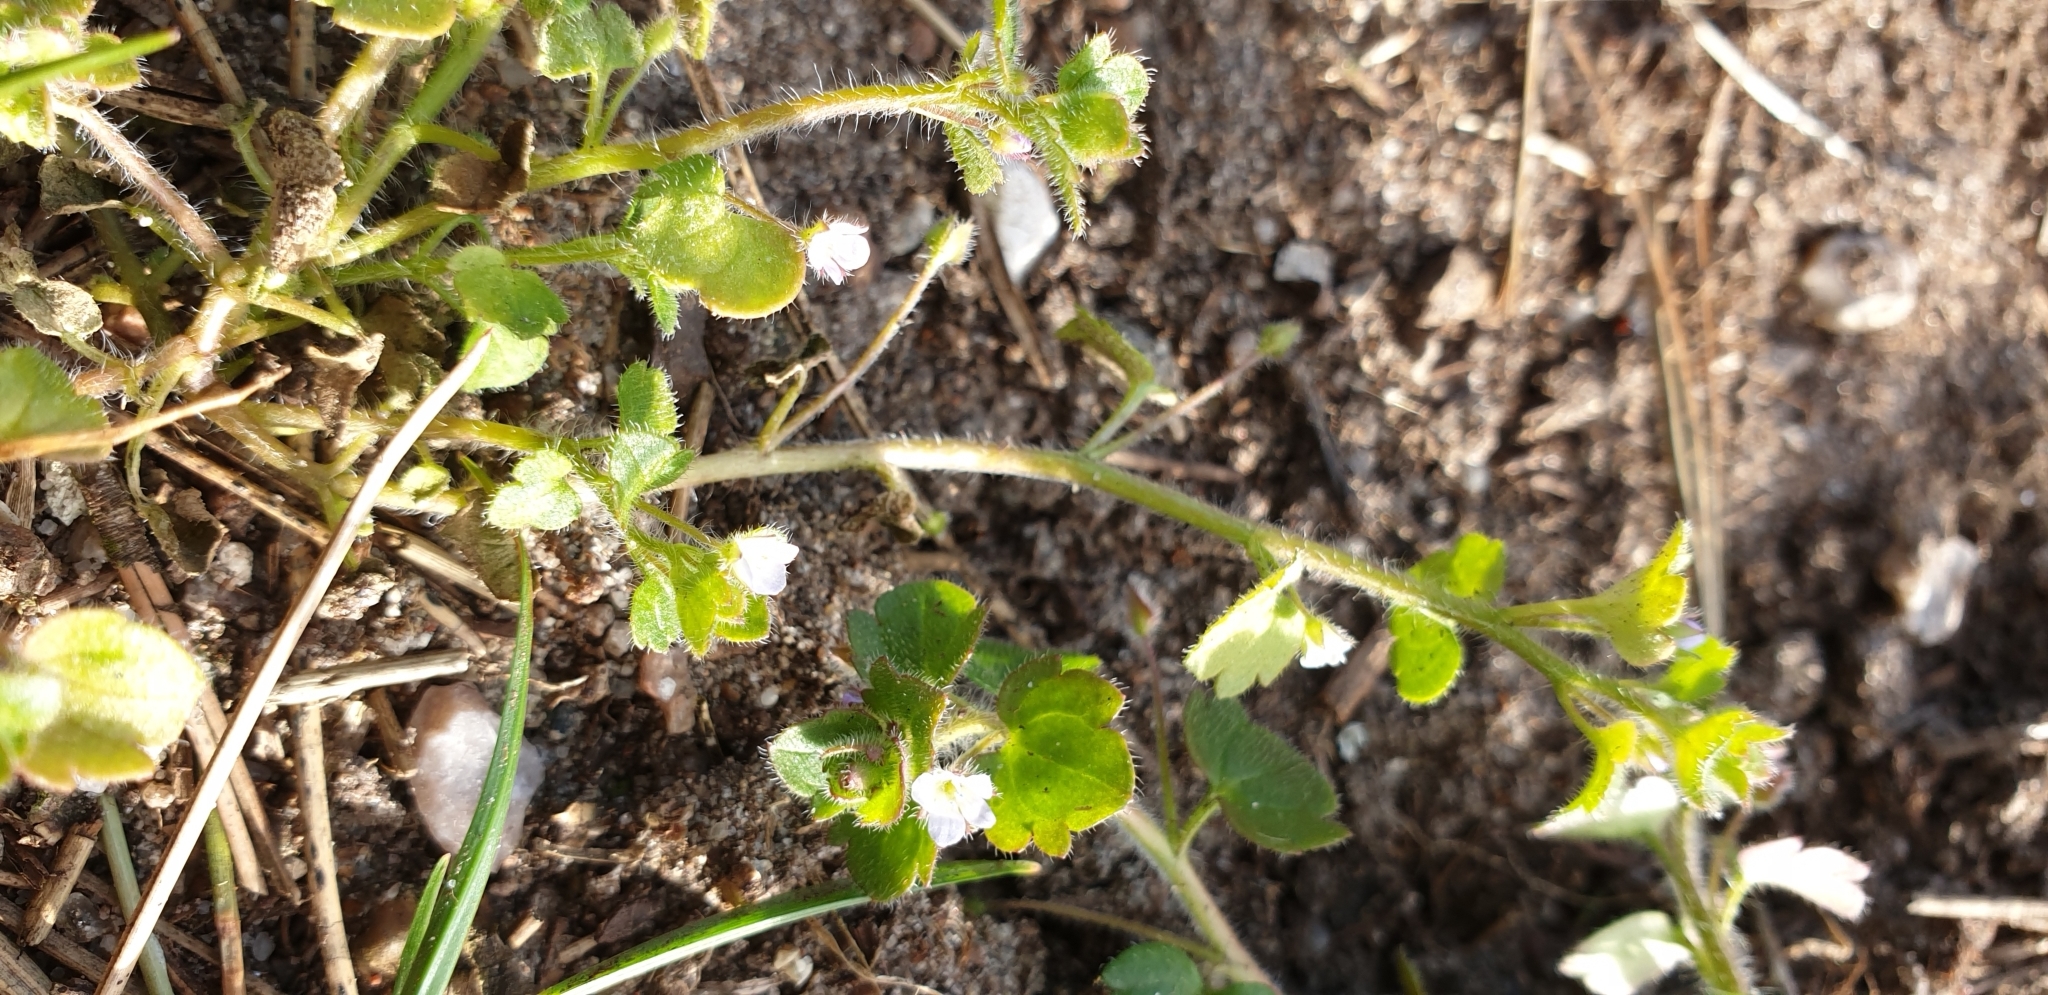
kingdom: Plantae
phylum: Tracheophyta
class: Magnoliopsida
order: Lamiales
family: Plantaginaceae
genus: Veronica
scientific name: Veronica sublobata
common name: False ivy-leaved speedwell
